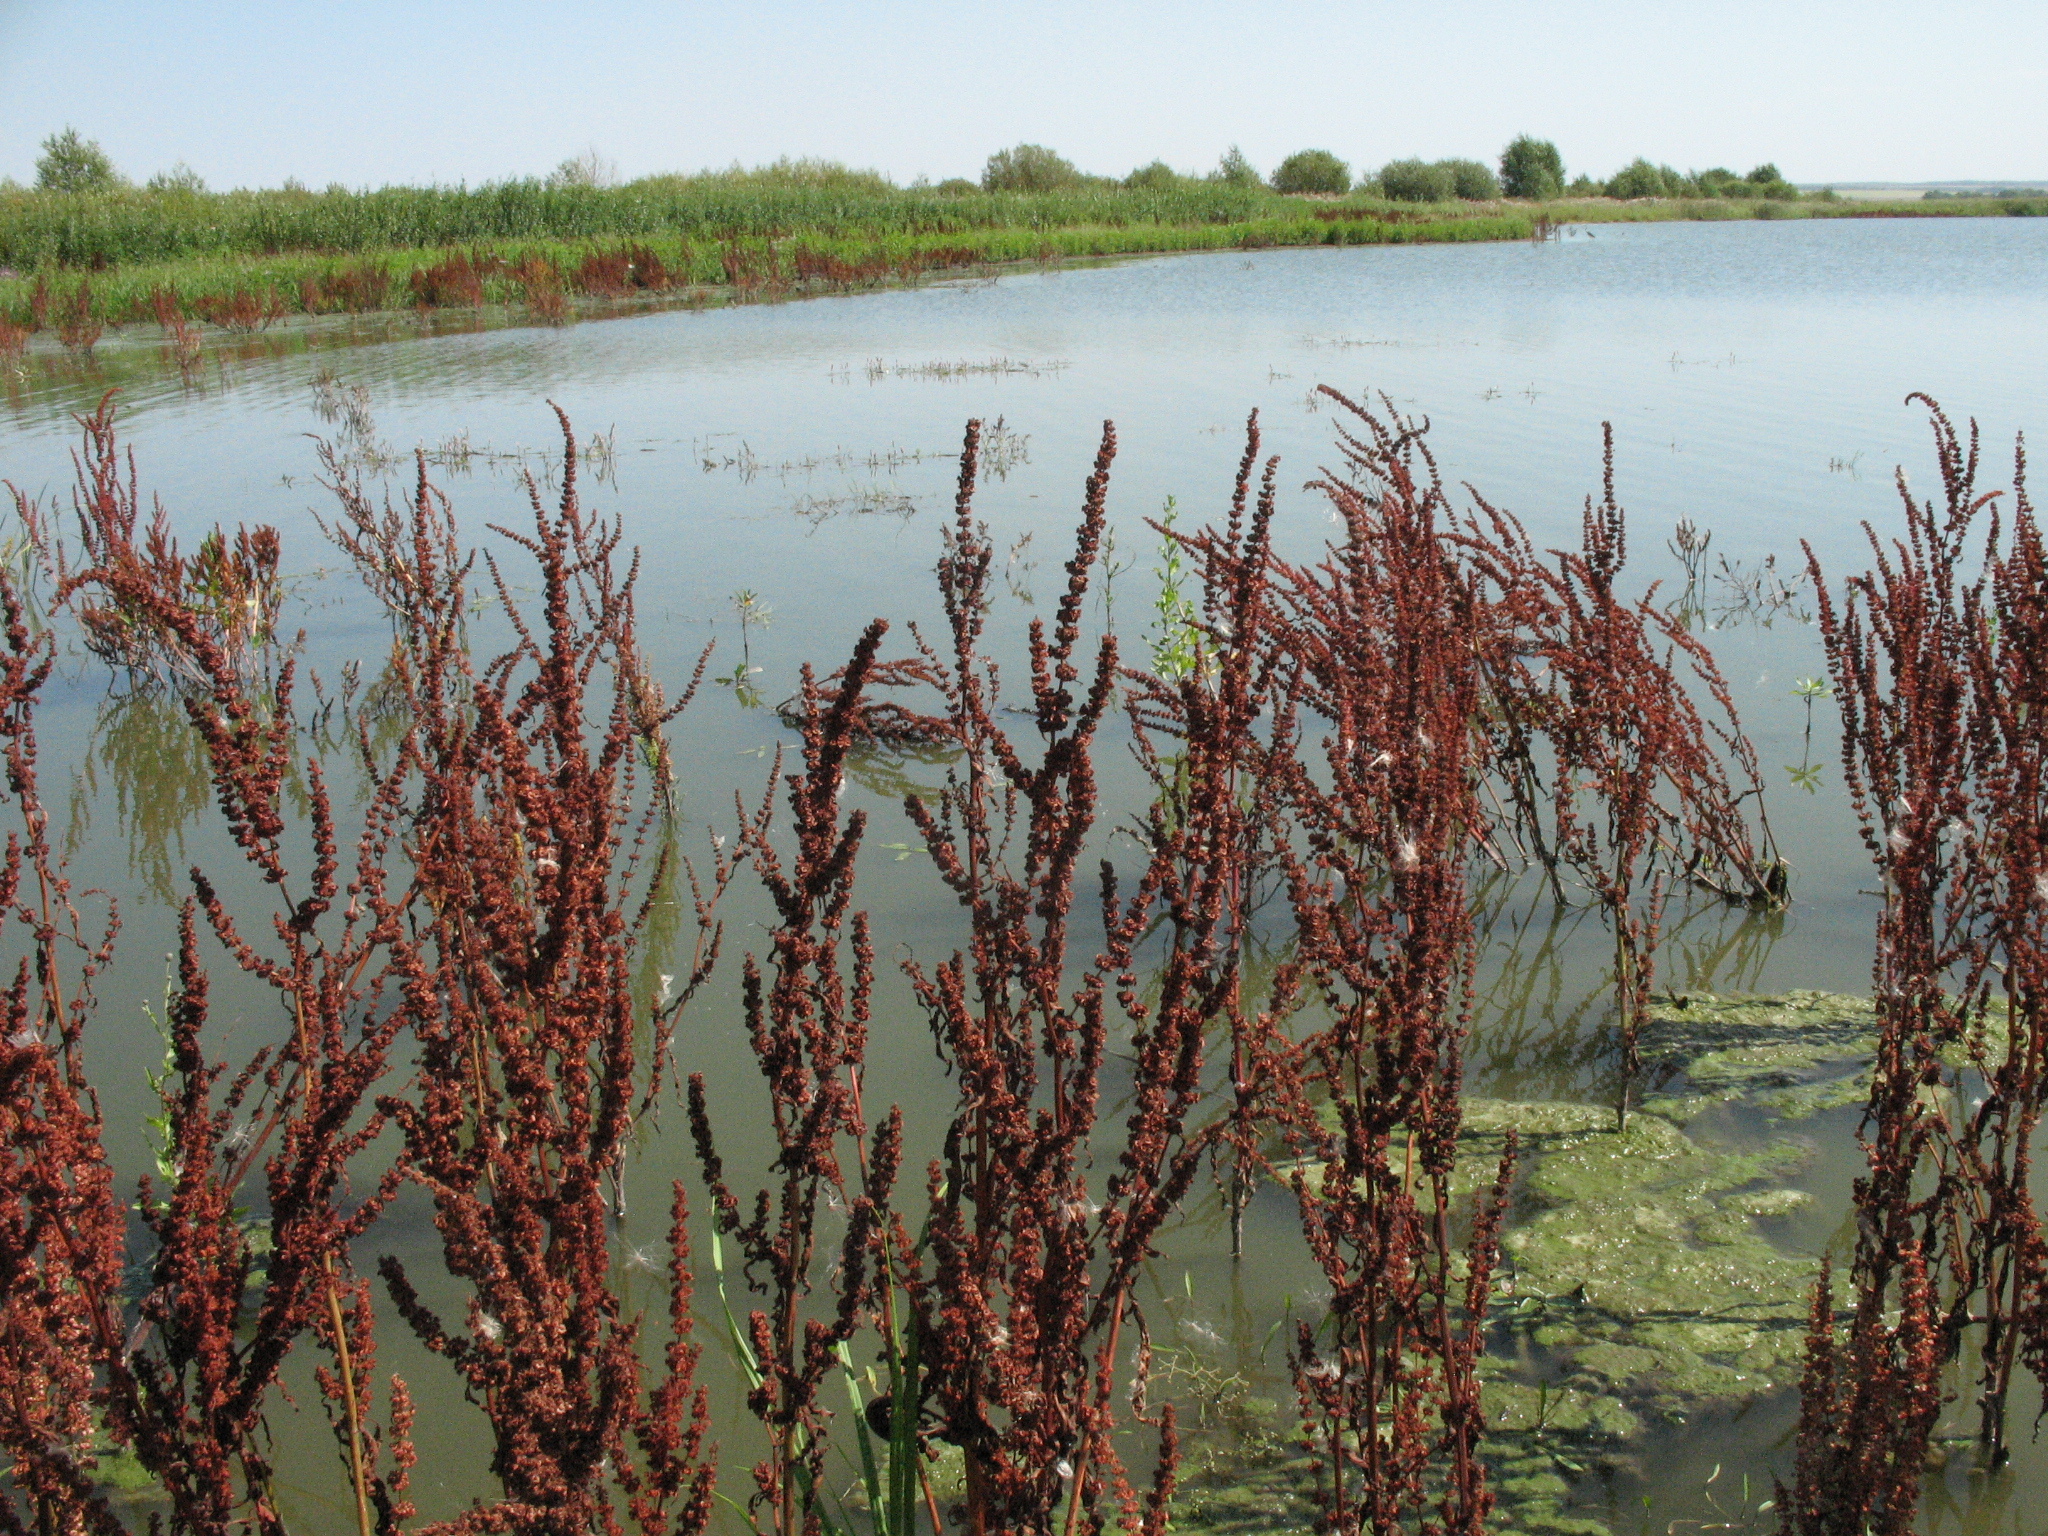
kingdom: Plantae
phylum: Tracheophyta
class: Magnoliopsida
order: Caryophyllales
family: Polygonaceae
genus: Rumex
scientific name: Rumex maritimus
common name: Golden dock
